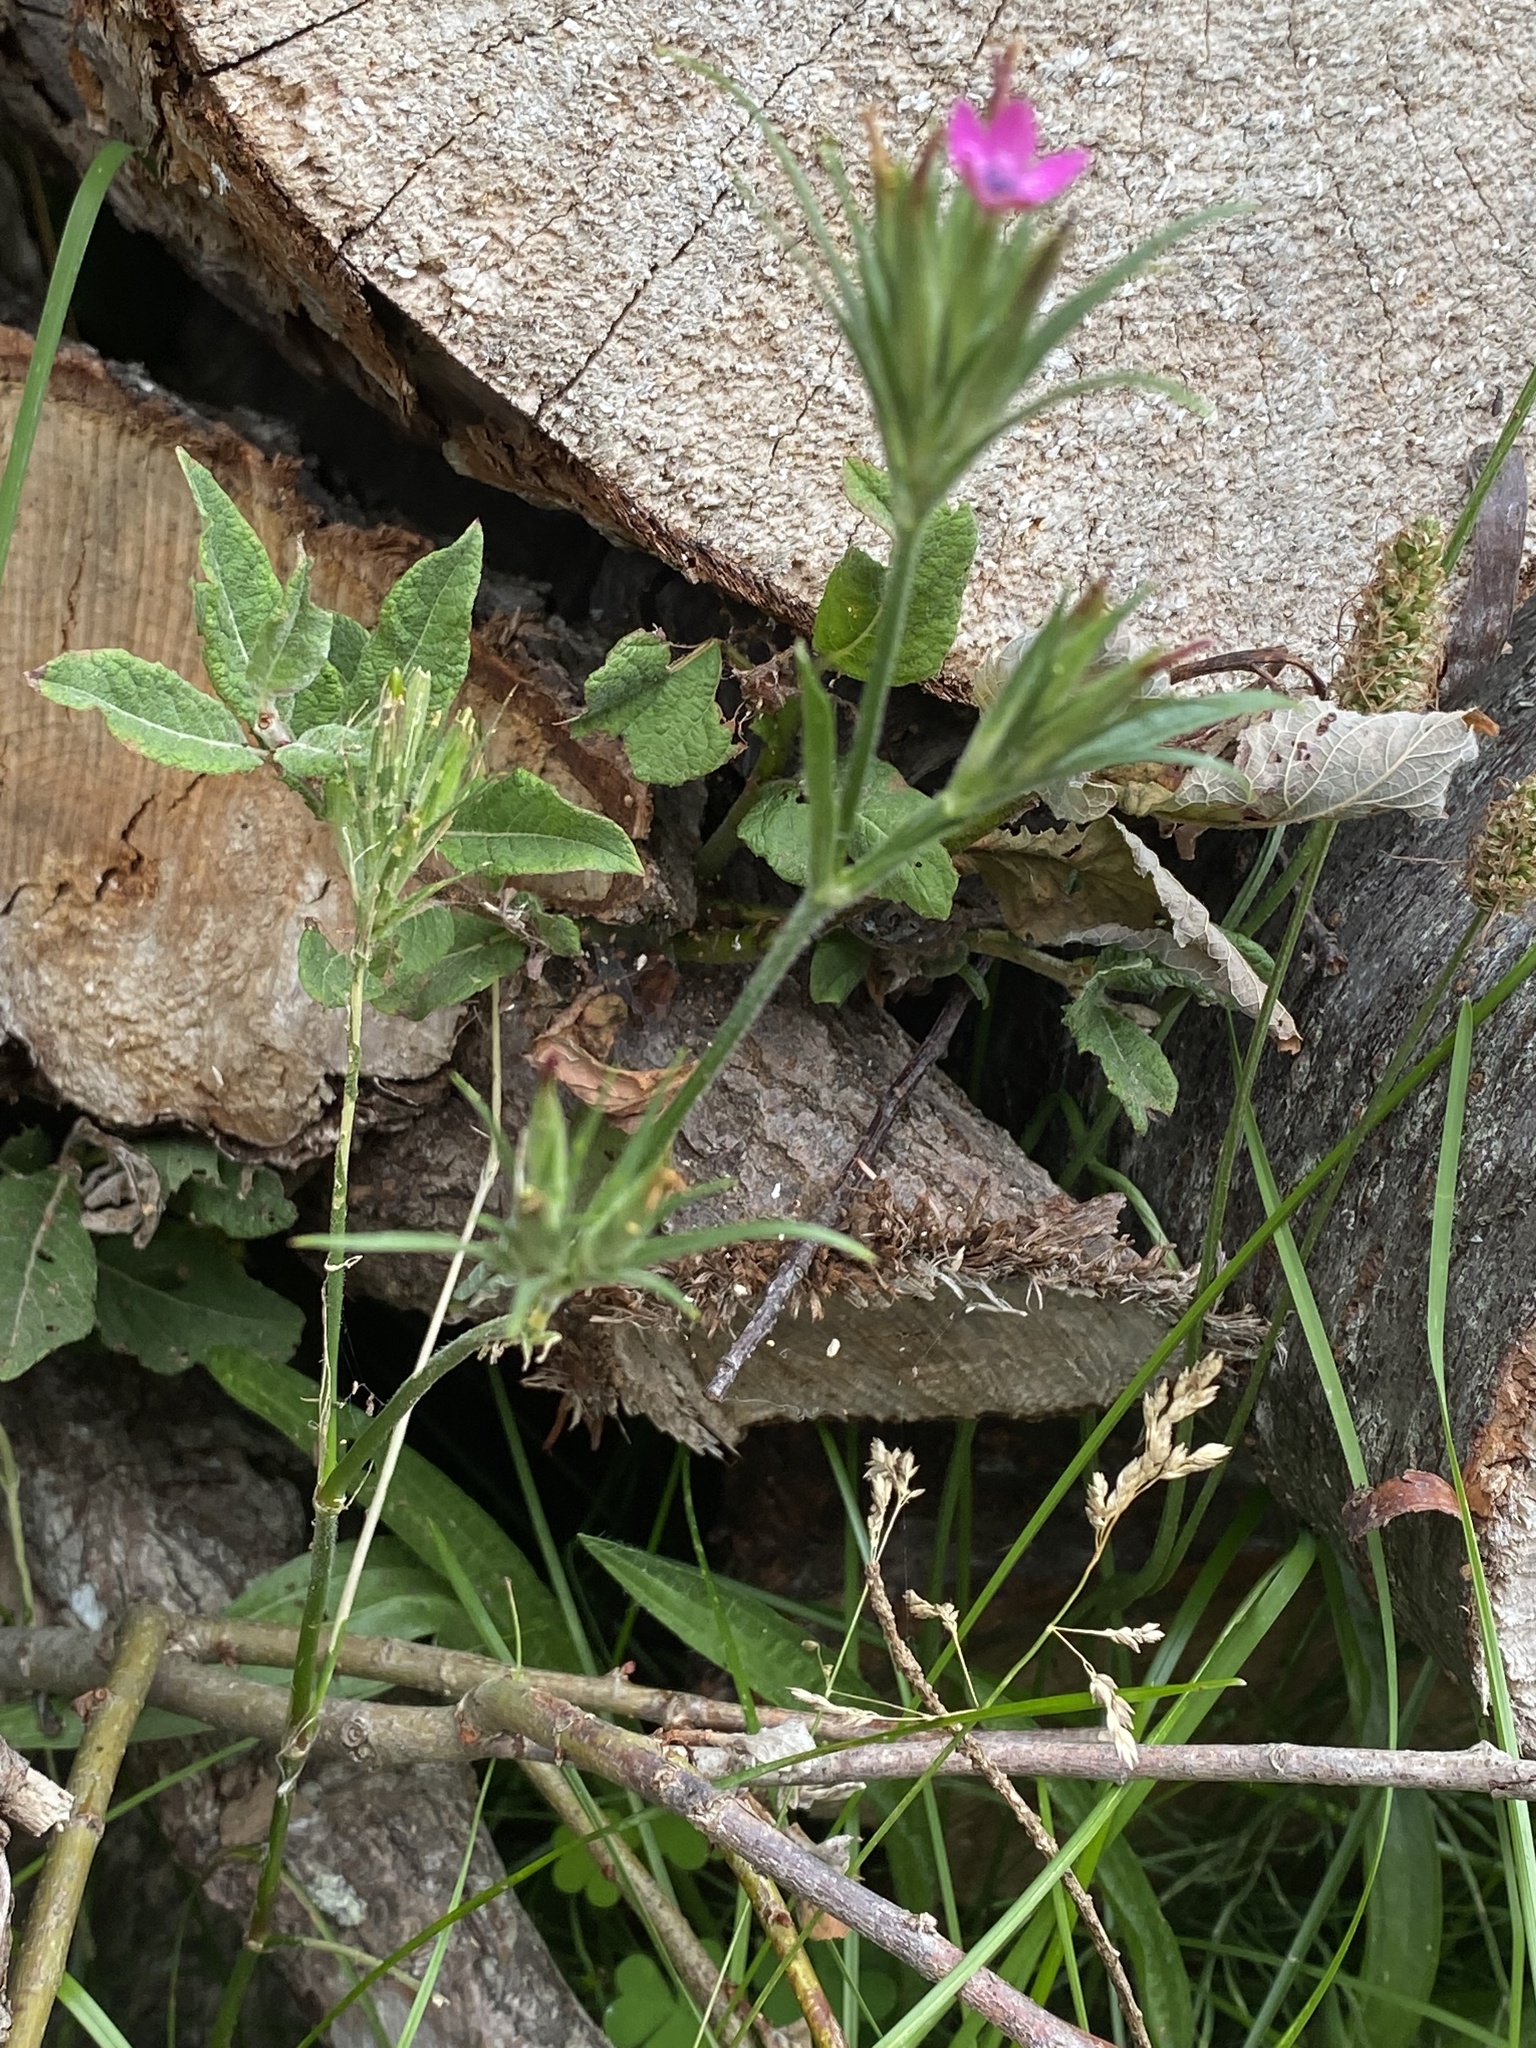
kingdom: Plantae
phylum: Tracheophyta
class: Magnoliopsida
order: Caryophyllales
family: Caryophyllaceae
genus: Dianthus
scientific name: Dianthus armeria
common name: Deptford pink
